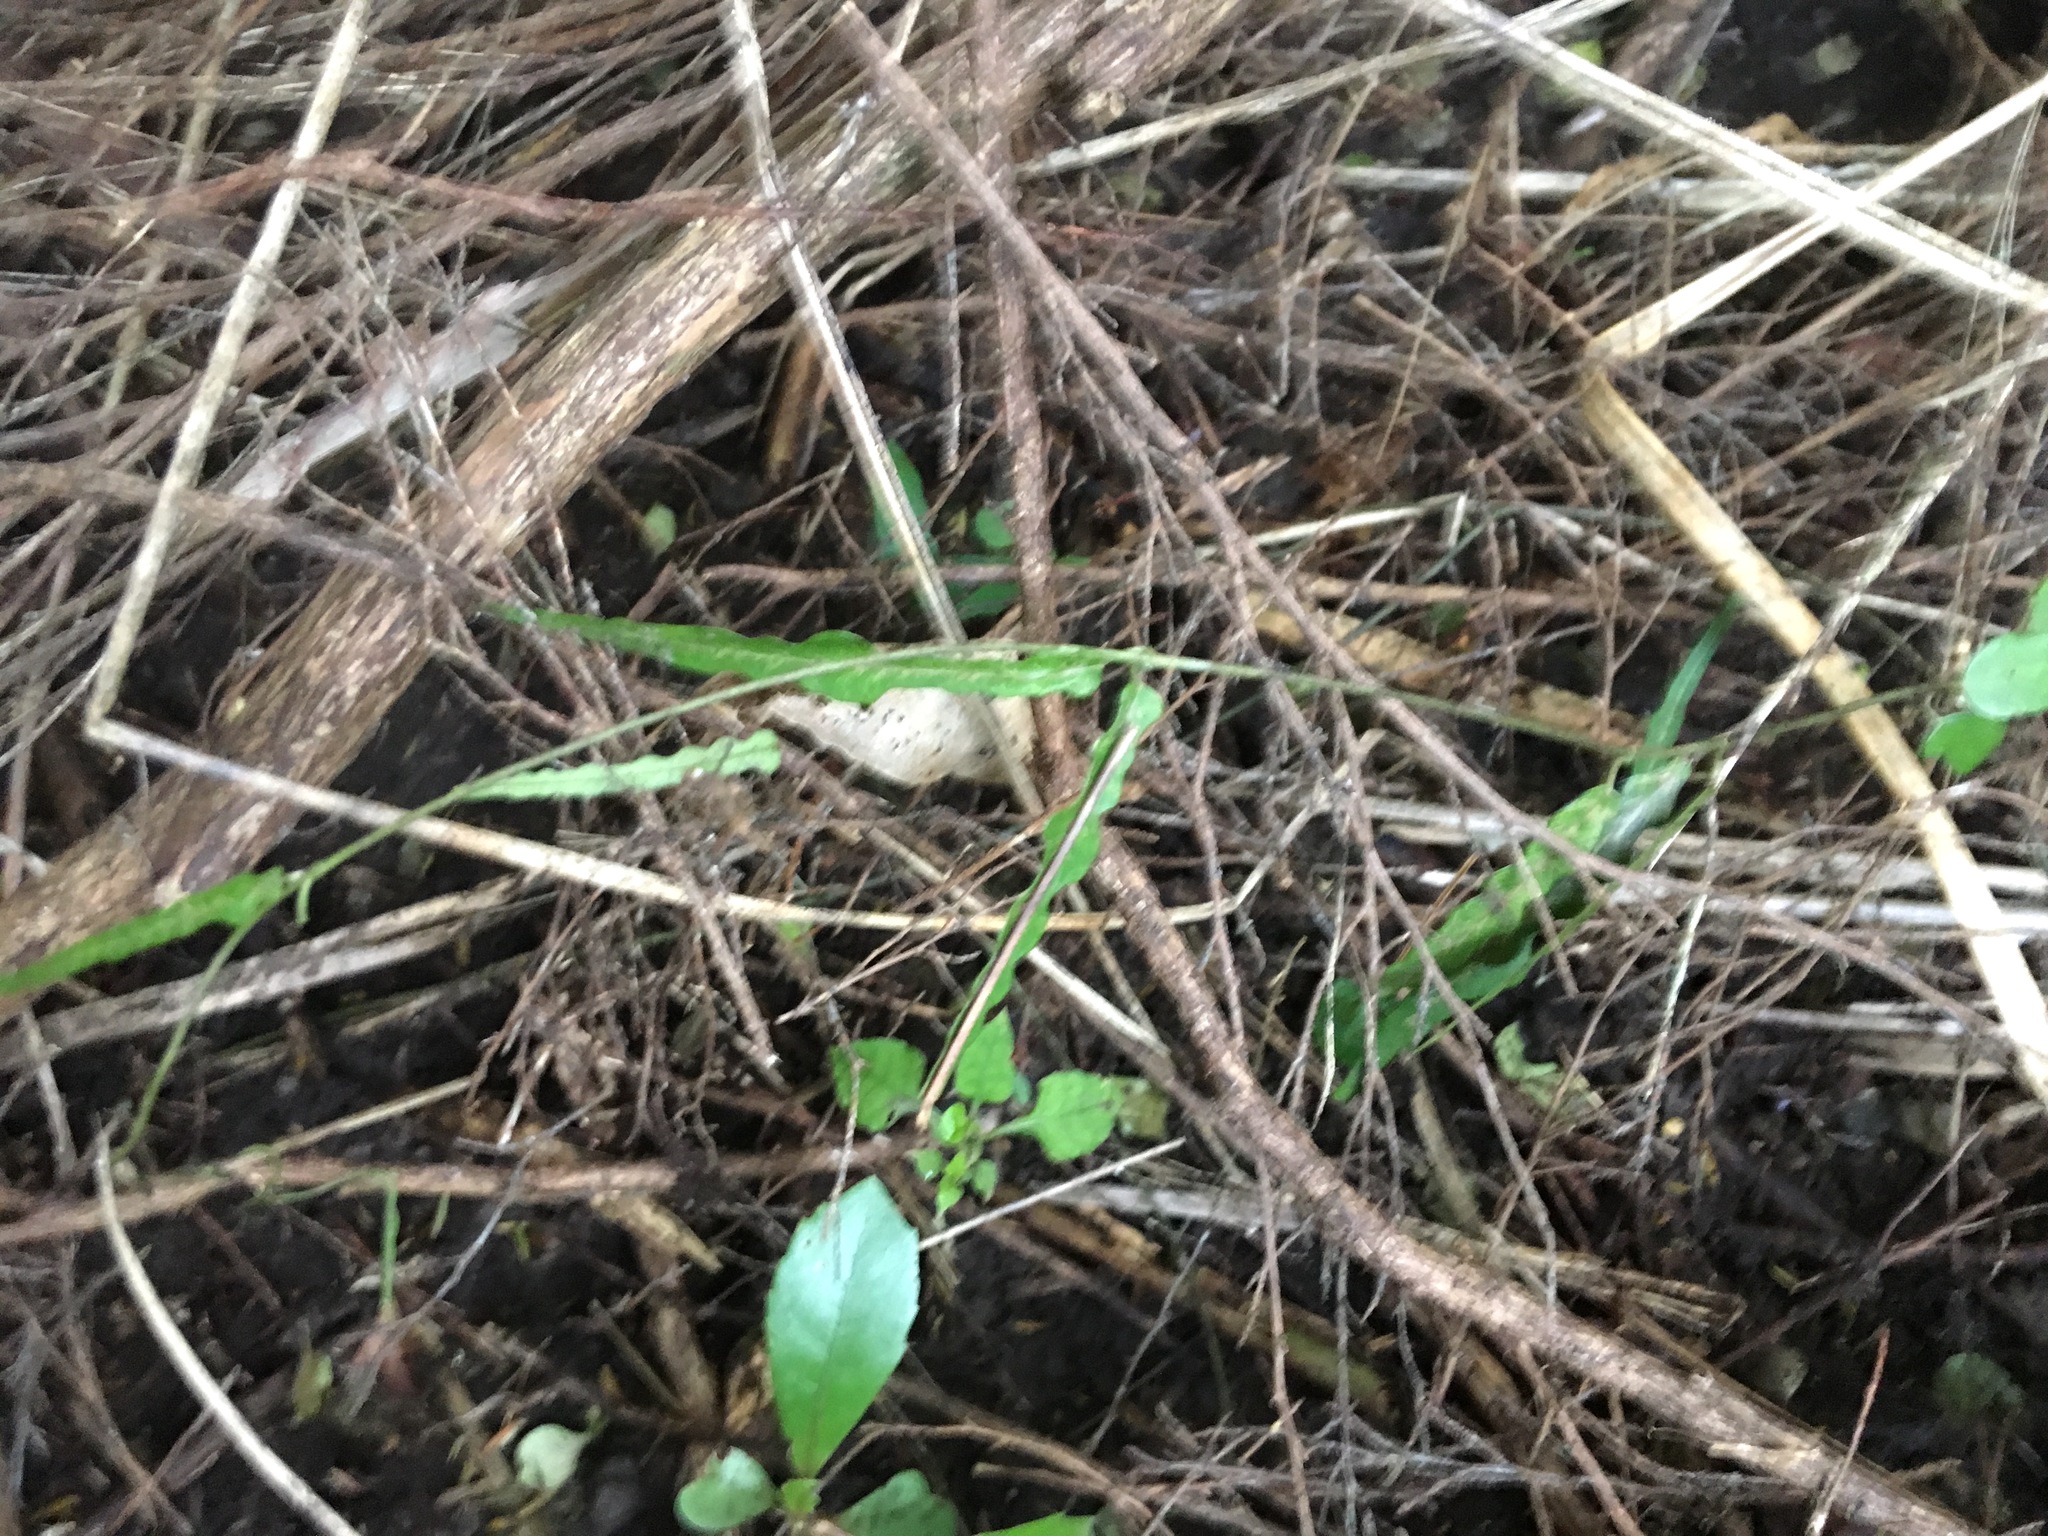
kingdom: Plantae
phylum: Tracheophyta
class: Magnoliopsida
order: Gentianales
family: Rubiaceae
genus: Coprosma
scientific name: Coprosma areolata
